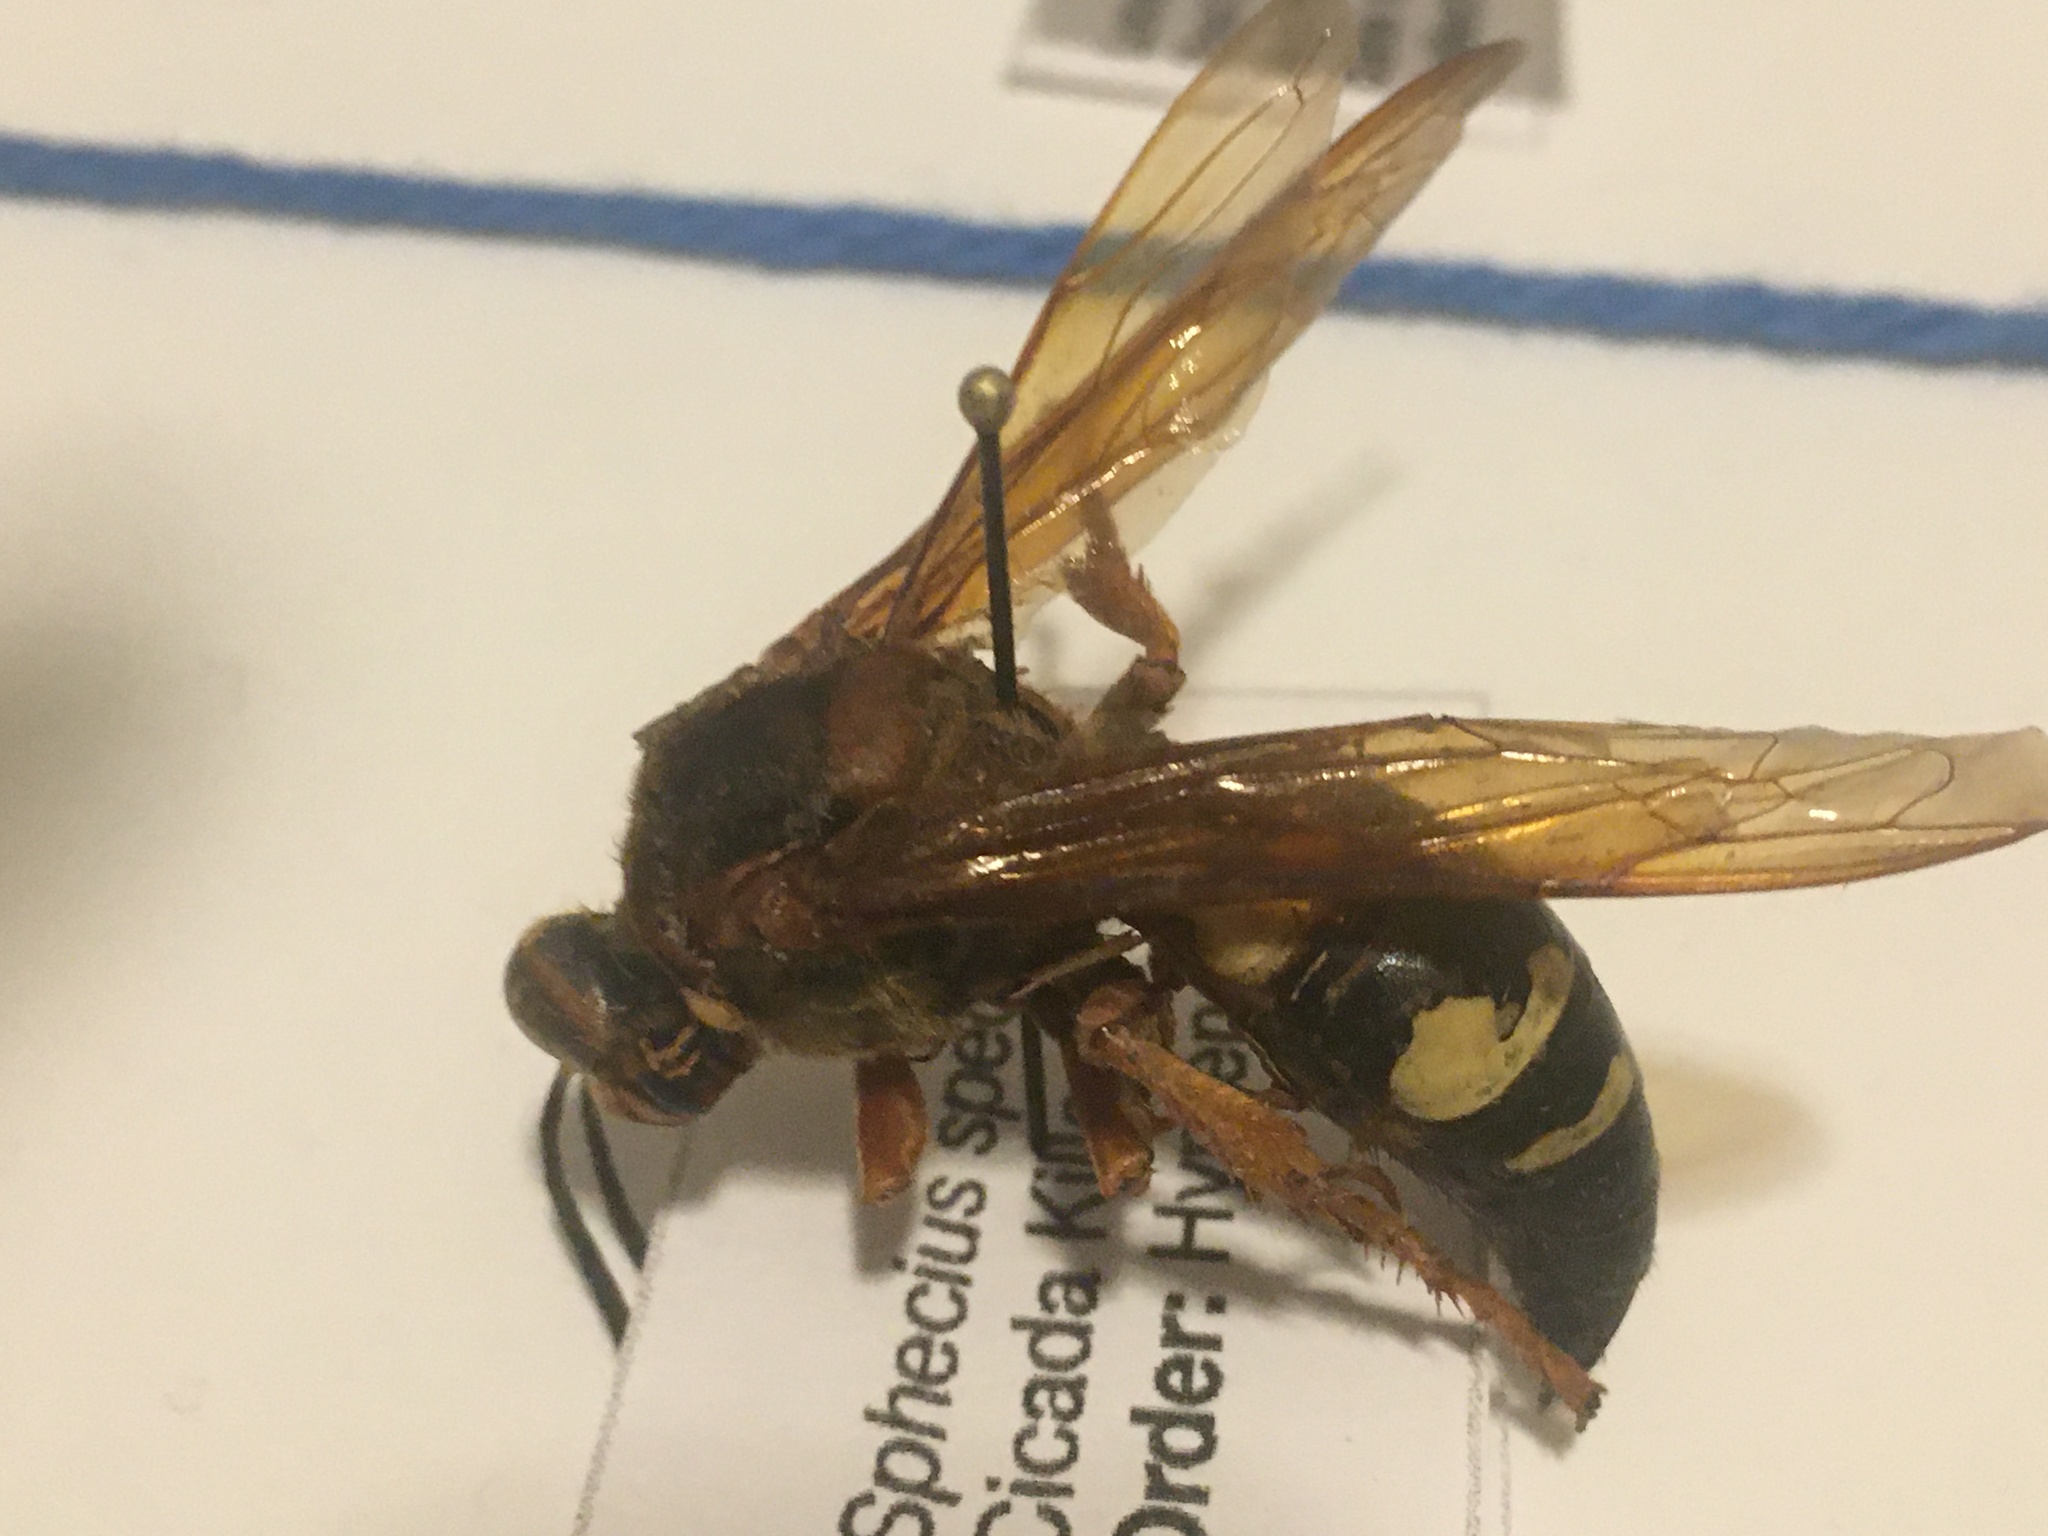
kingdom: Animalia
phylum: Arthropoda
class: Insecta
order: Hymenoptera
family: Crabronidae
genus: Sphecius
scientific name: Sphecius speciosus
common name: Cicada killer
